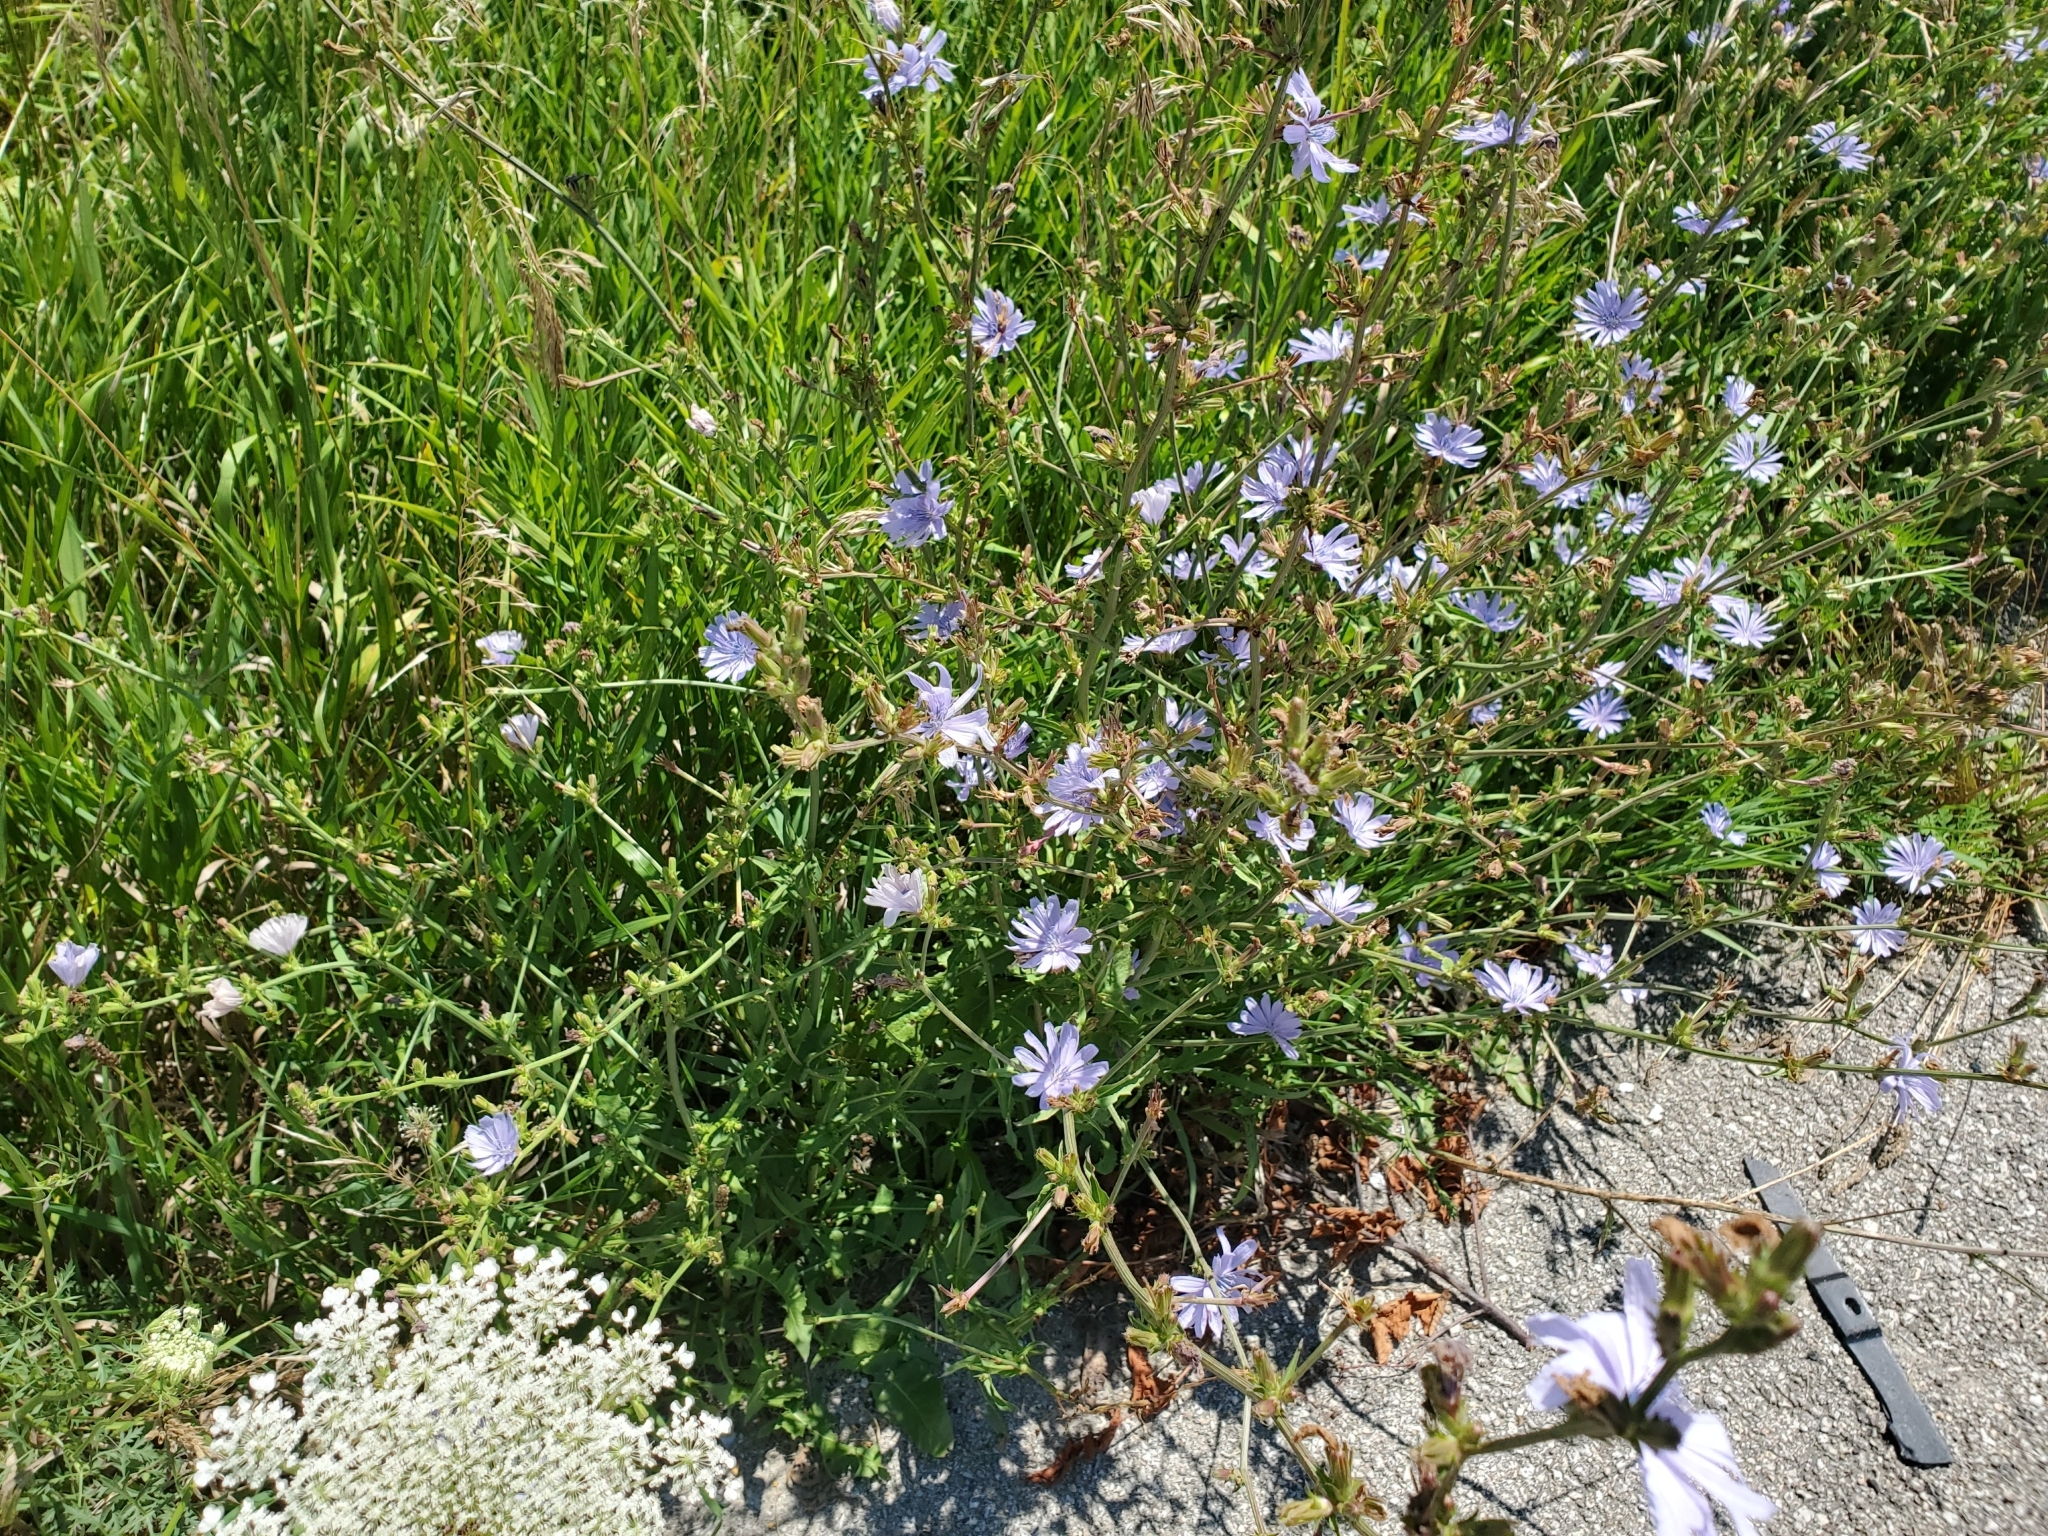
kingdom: Plantae
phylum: Tracheophyta
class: Magnoliopsida
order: Asterales
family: Asteraceae
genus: Cichorium
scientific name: Cichorium intybus
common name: Chicory
